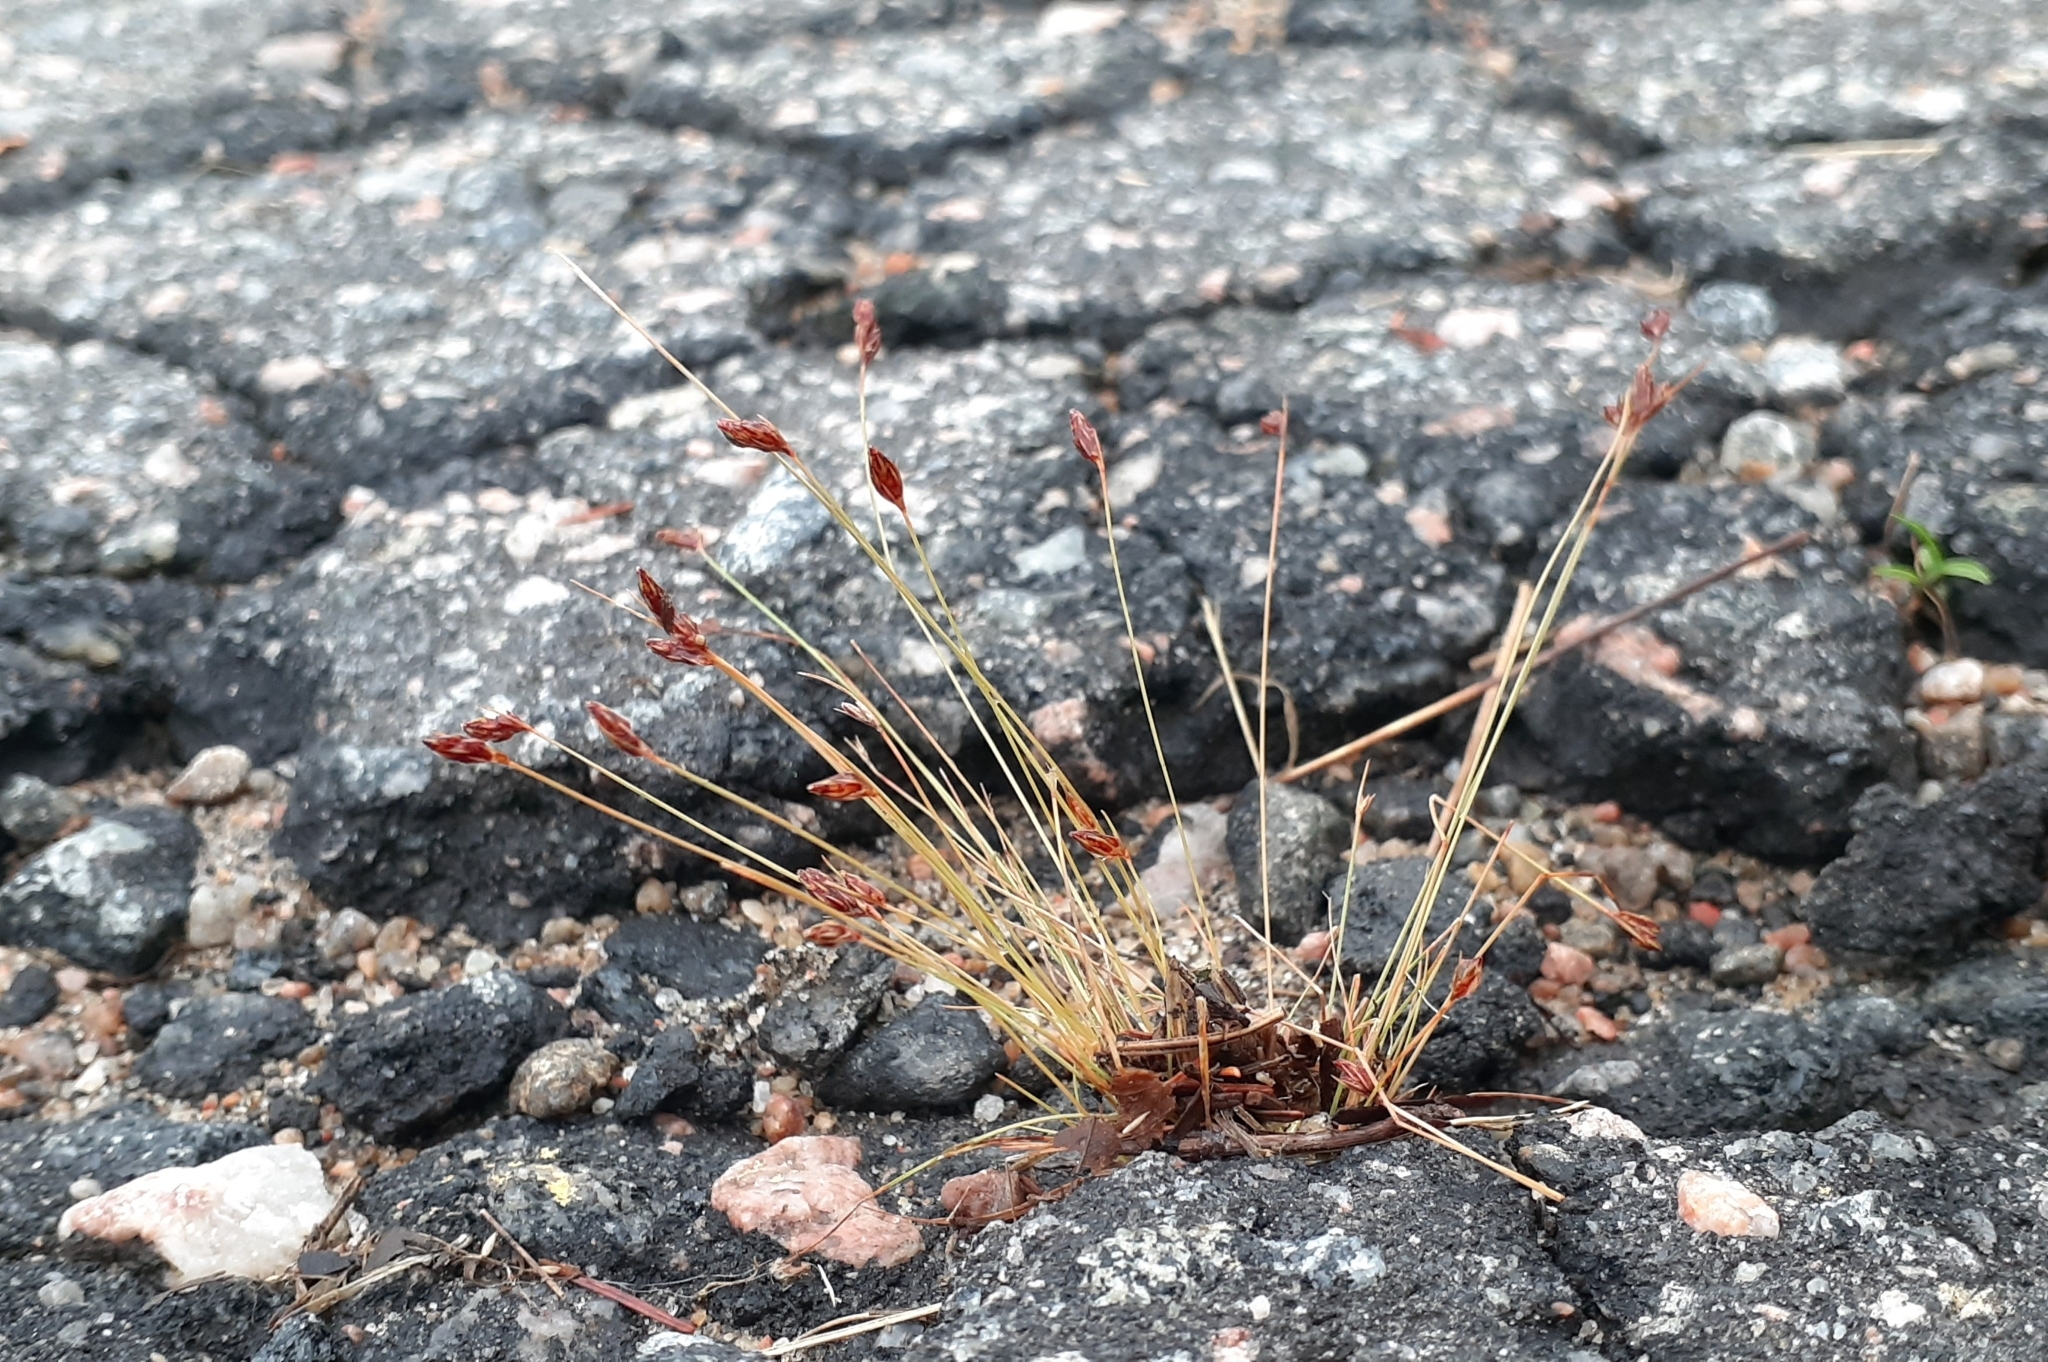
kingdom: Plantae
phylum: Tracheophyta
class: Liliopsida
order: Poales
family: Cyperaceae
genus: Bulbostylis
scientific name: Bulbostylis capillaris
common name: Densetuft hairsedge
